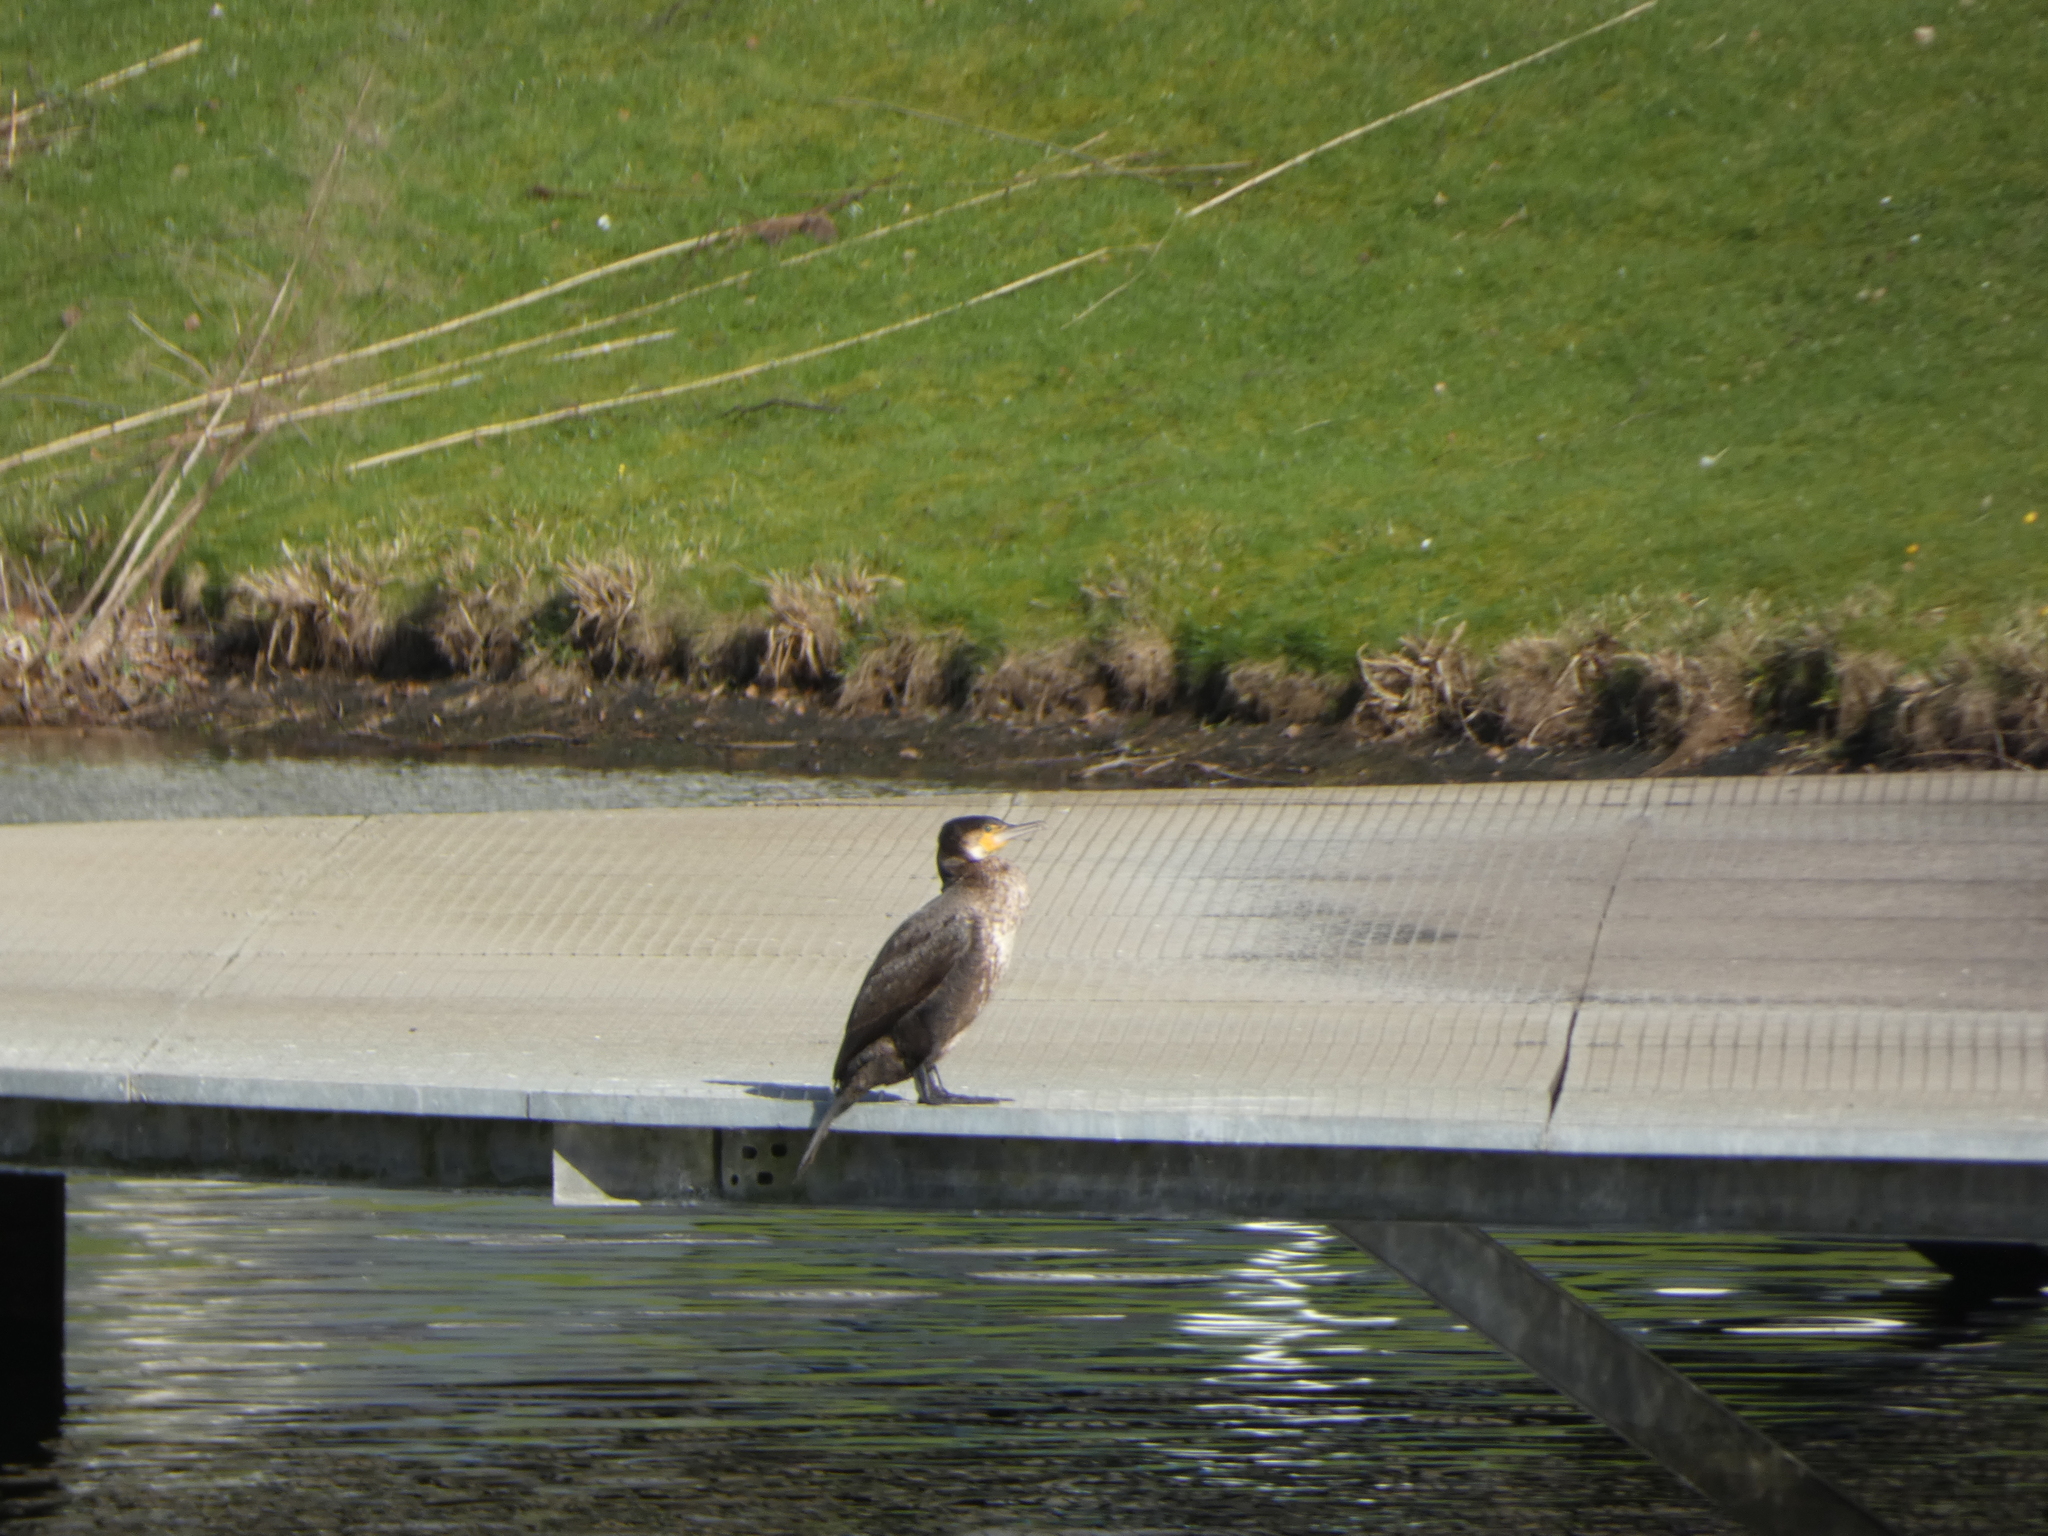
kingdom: Animalia
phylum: Chordata
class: Aves
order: Suliformes
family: Phalacrocoracidae
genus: Phalacrocorax
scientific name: Phalacrocorax carbo
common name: Great cormorant
